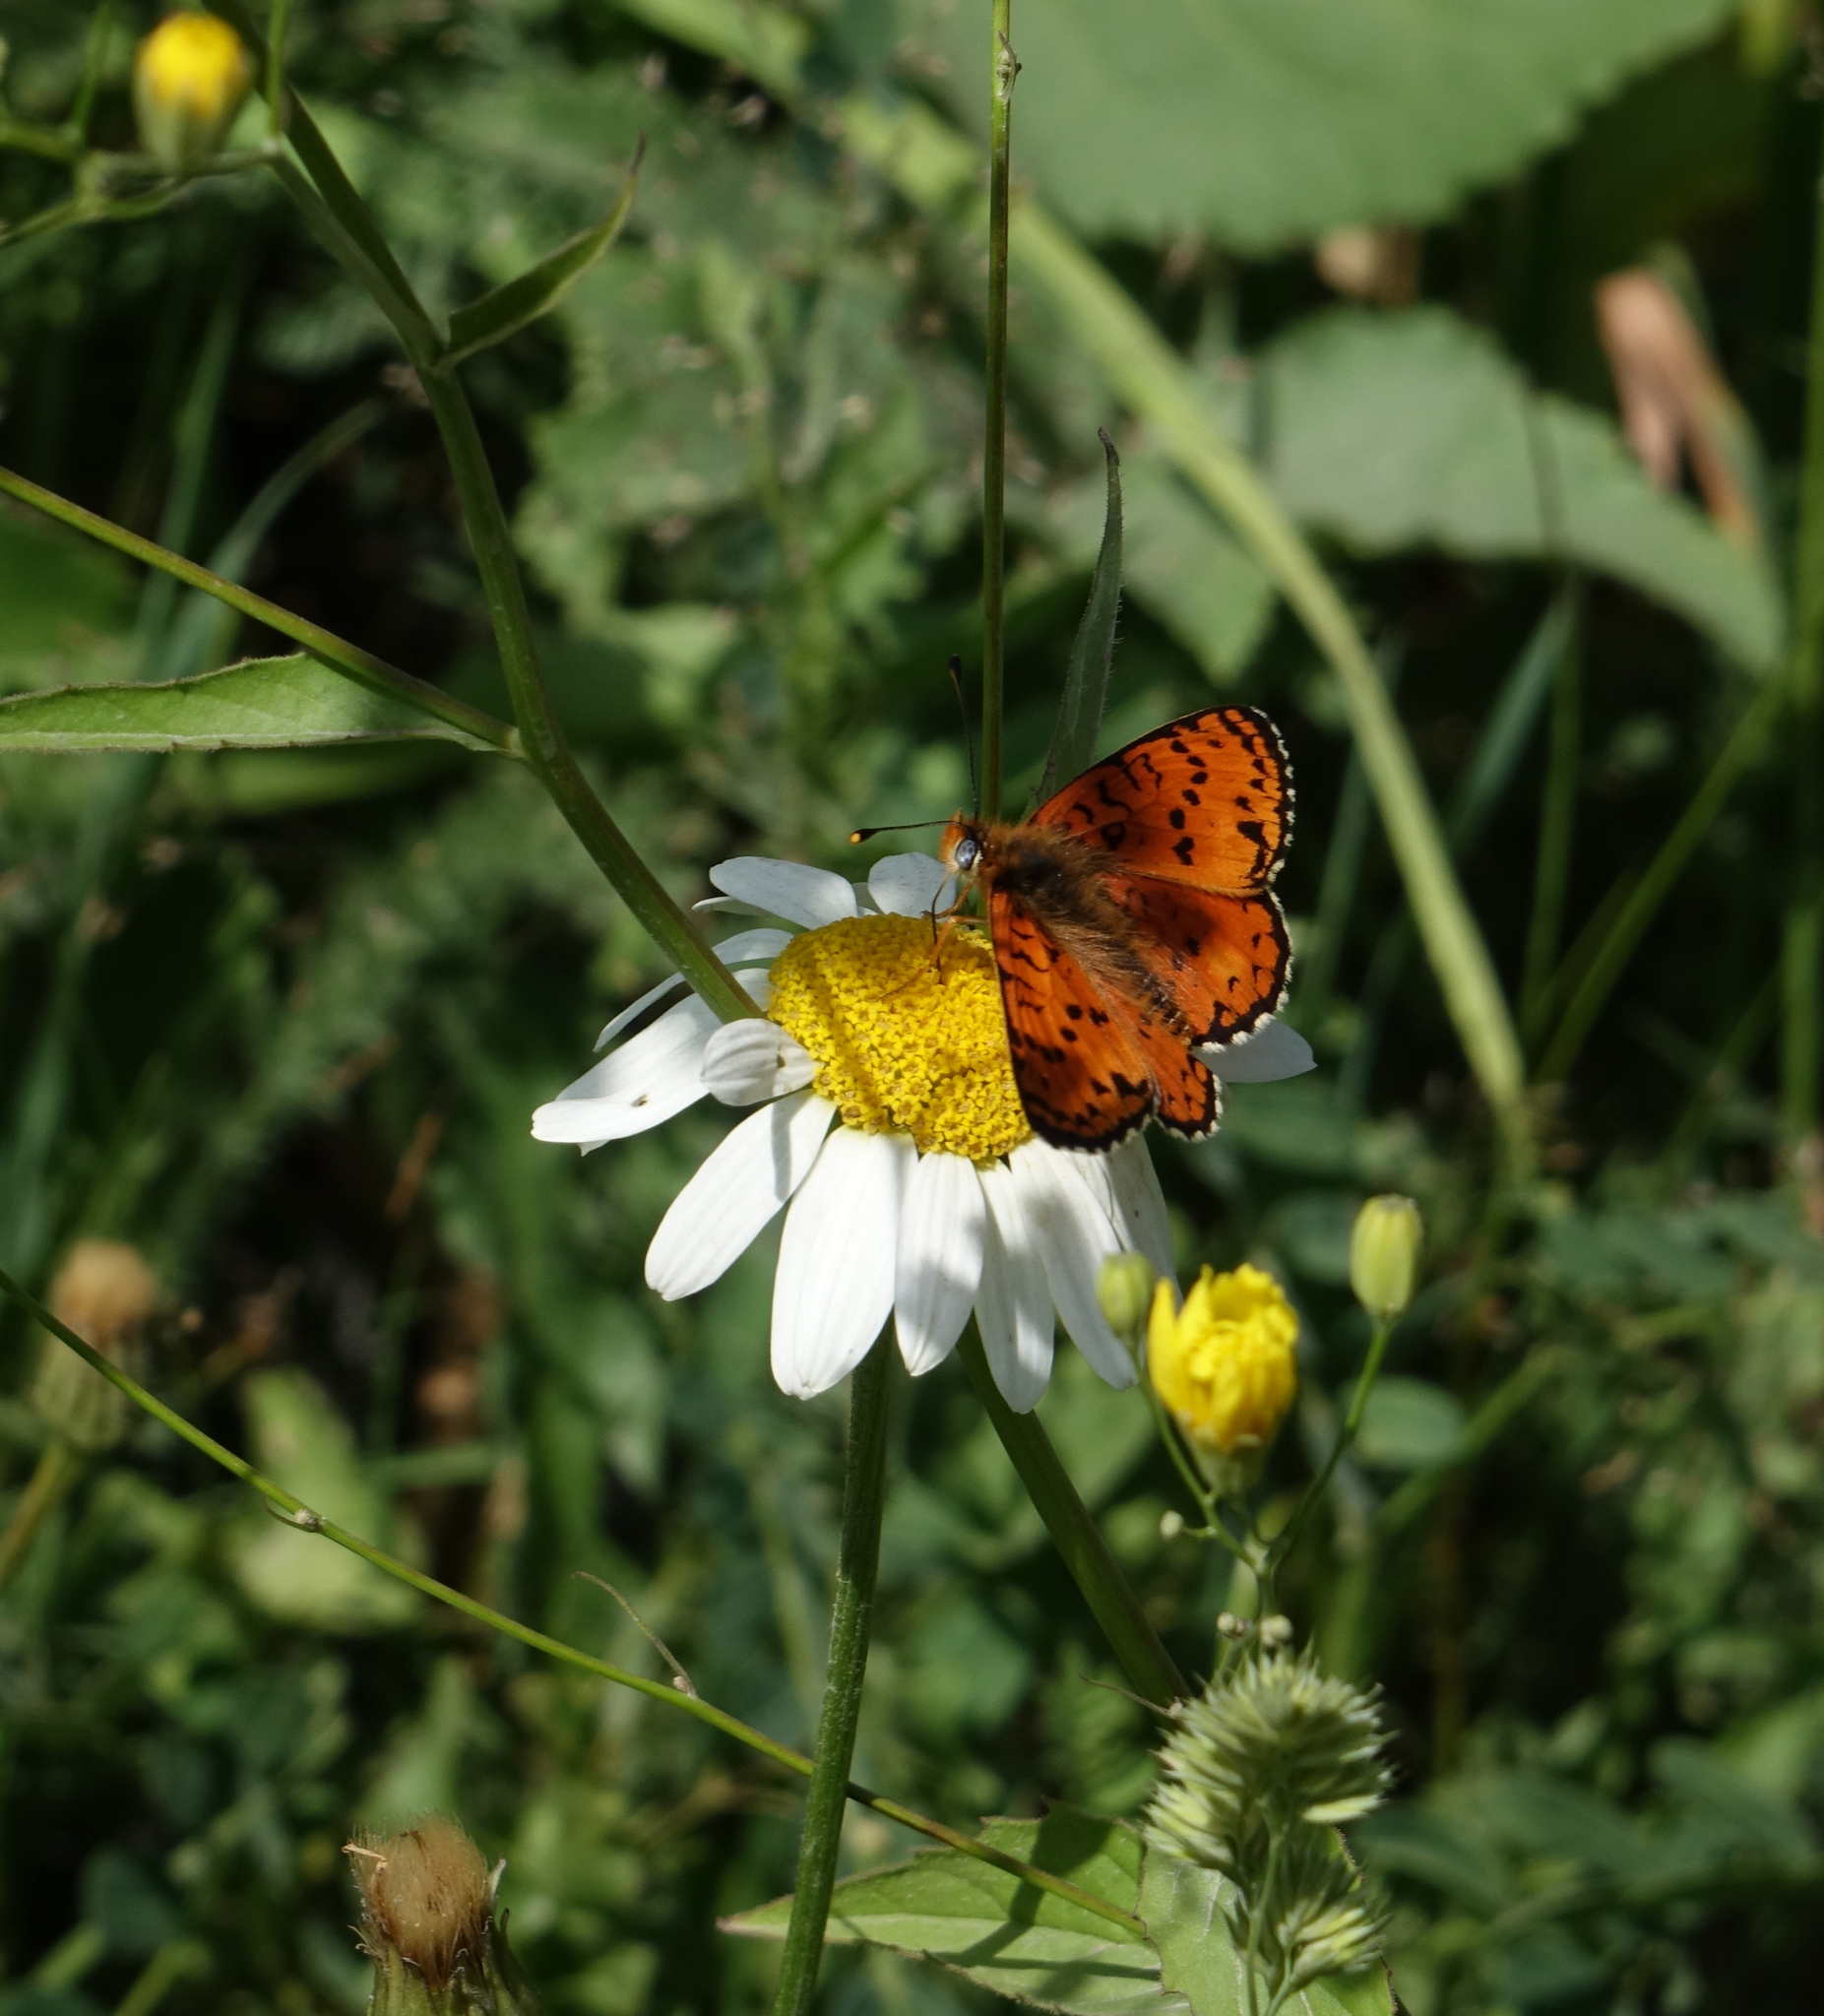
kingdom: Animalia
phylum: Arthropoda
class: Insecta
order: Lepidoptera
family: Nymphalidae
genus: Melitaea
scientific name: Melitaea cinxia
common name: Glanville fritillary
